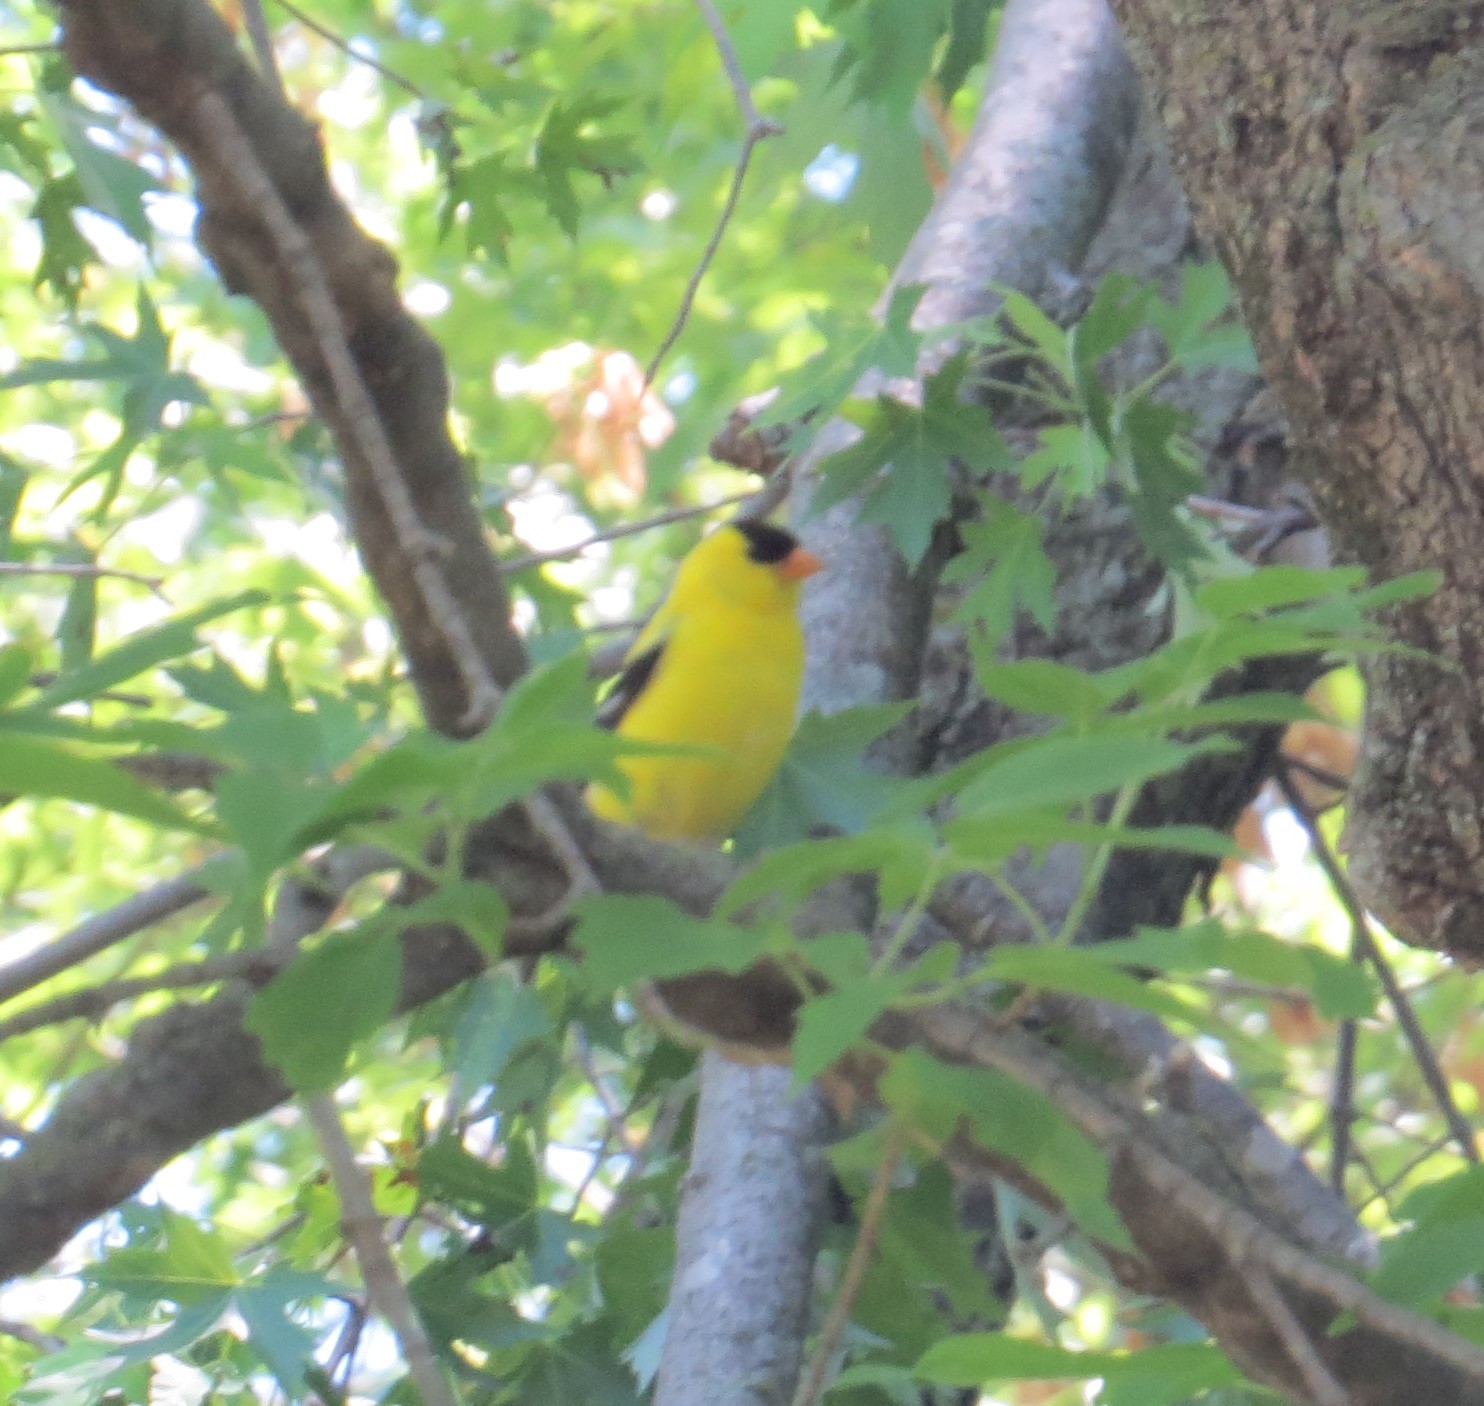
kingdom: Animalia
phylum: Chordata
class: Aves
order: Passeriformes
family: Fringillidae
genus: Spinus
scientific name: Spinus tristis
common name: American goldfinch
